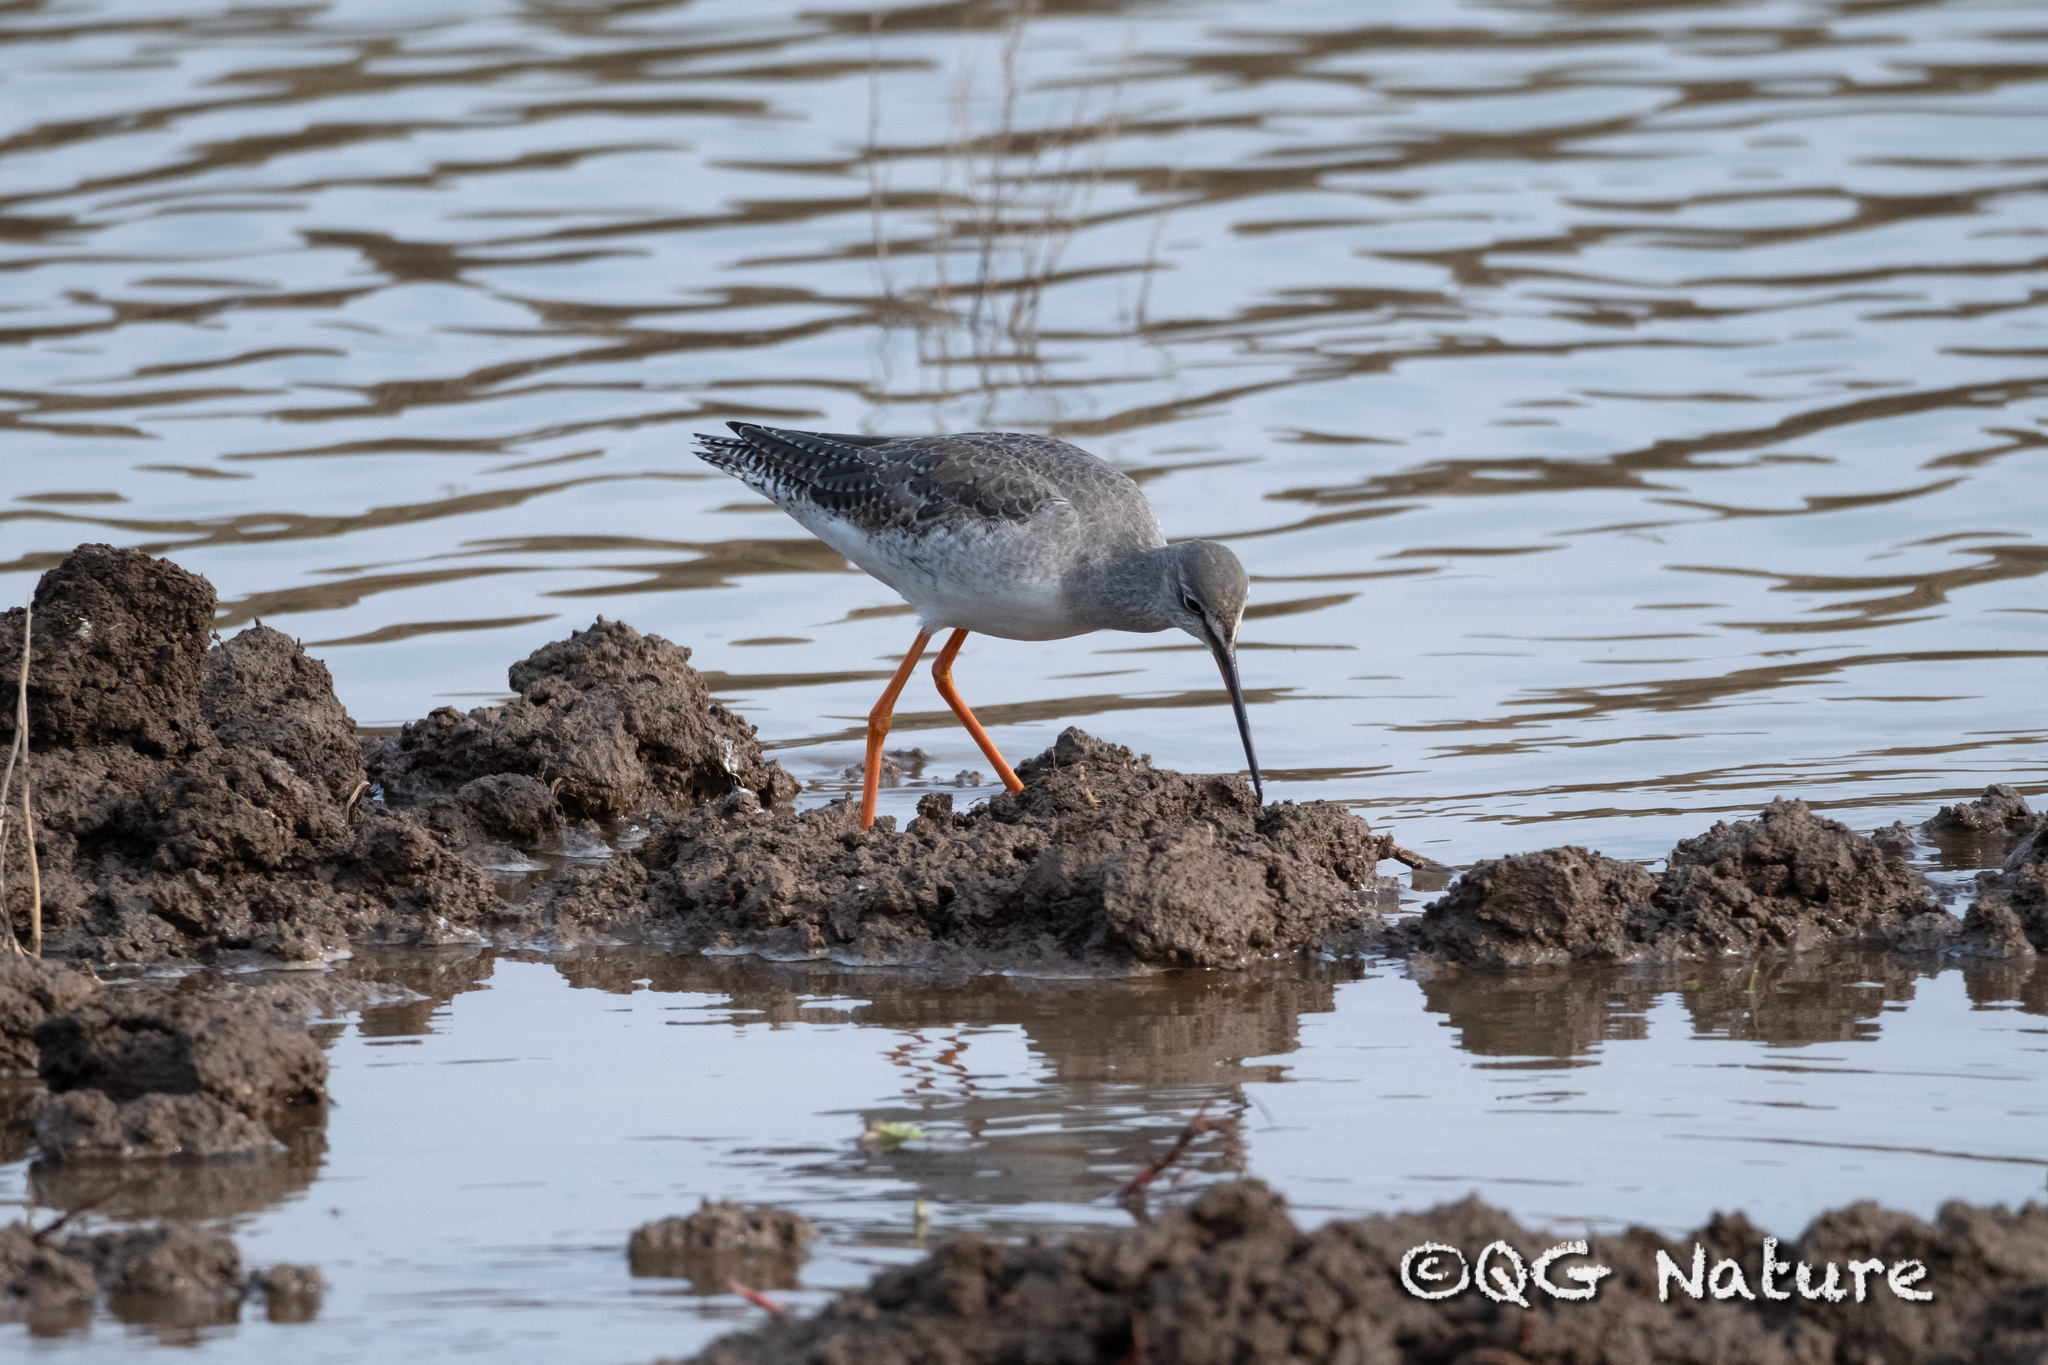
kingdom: Animalia
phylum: Chordata
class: Aves
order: Charadriiformes
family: Scolopacidae
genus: Tringa
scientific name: Tringa erythropus
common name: Spotted redshank
